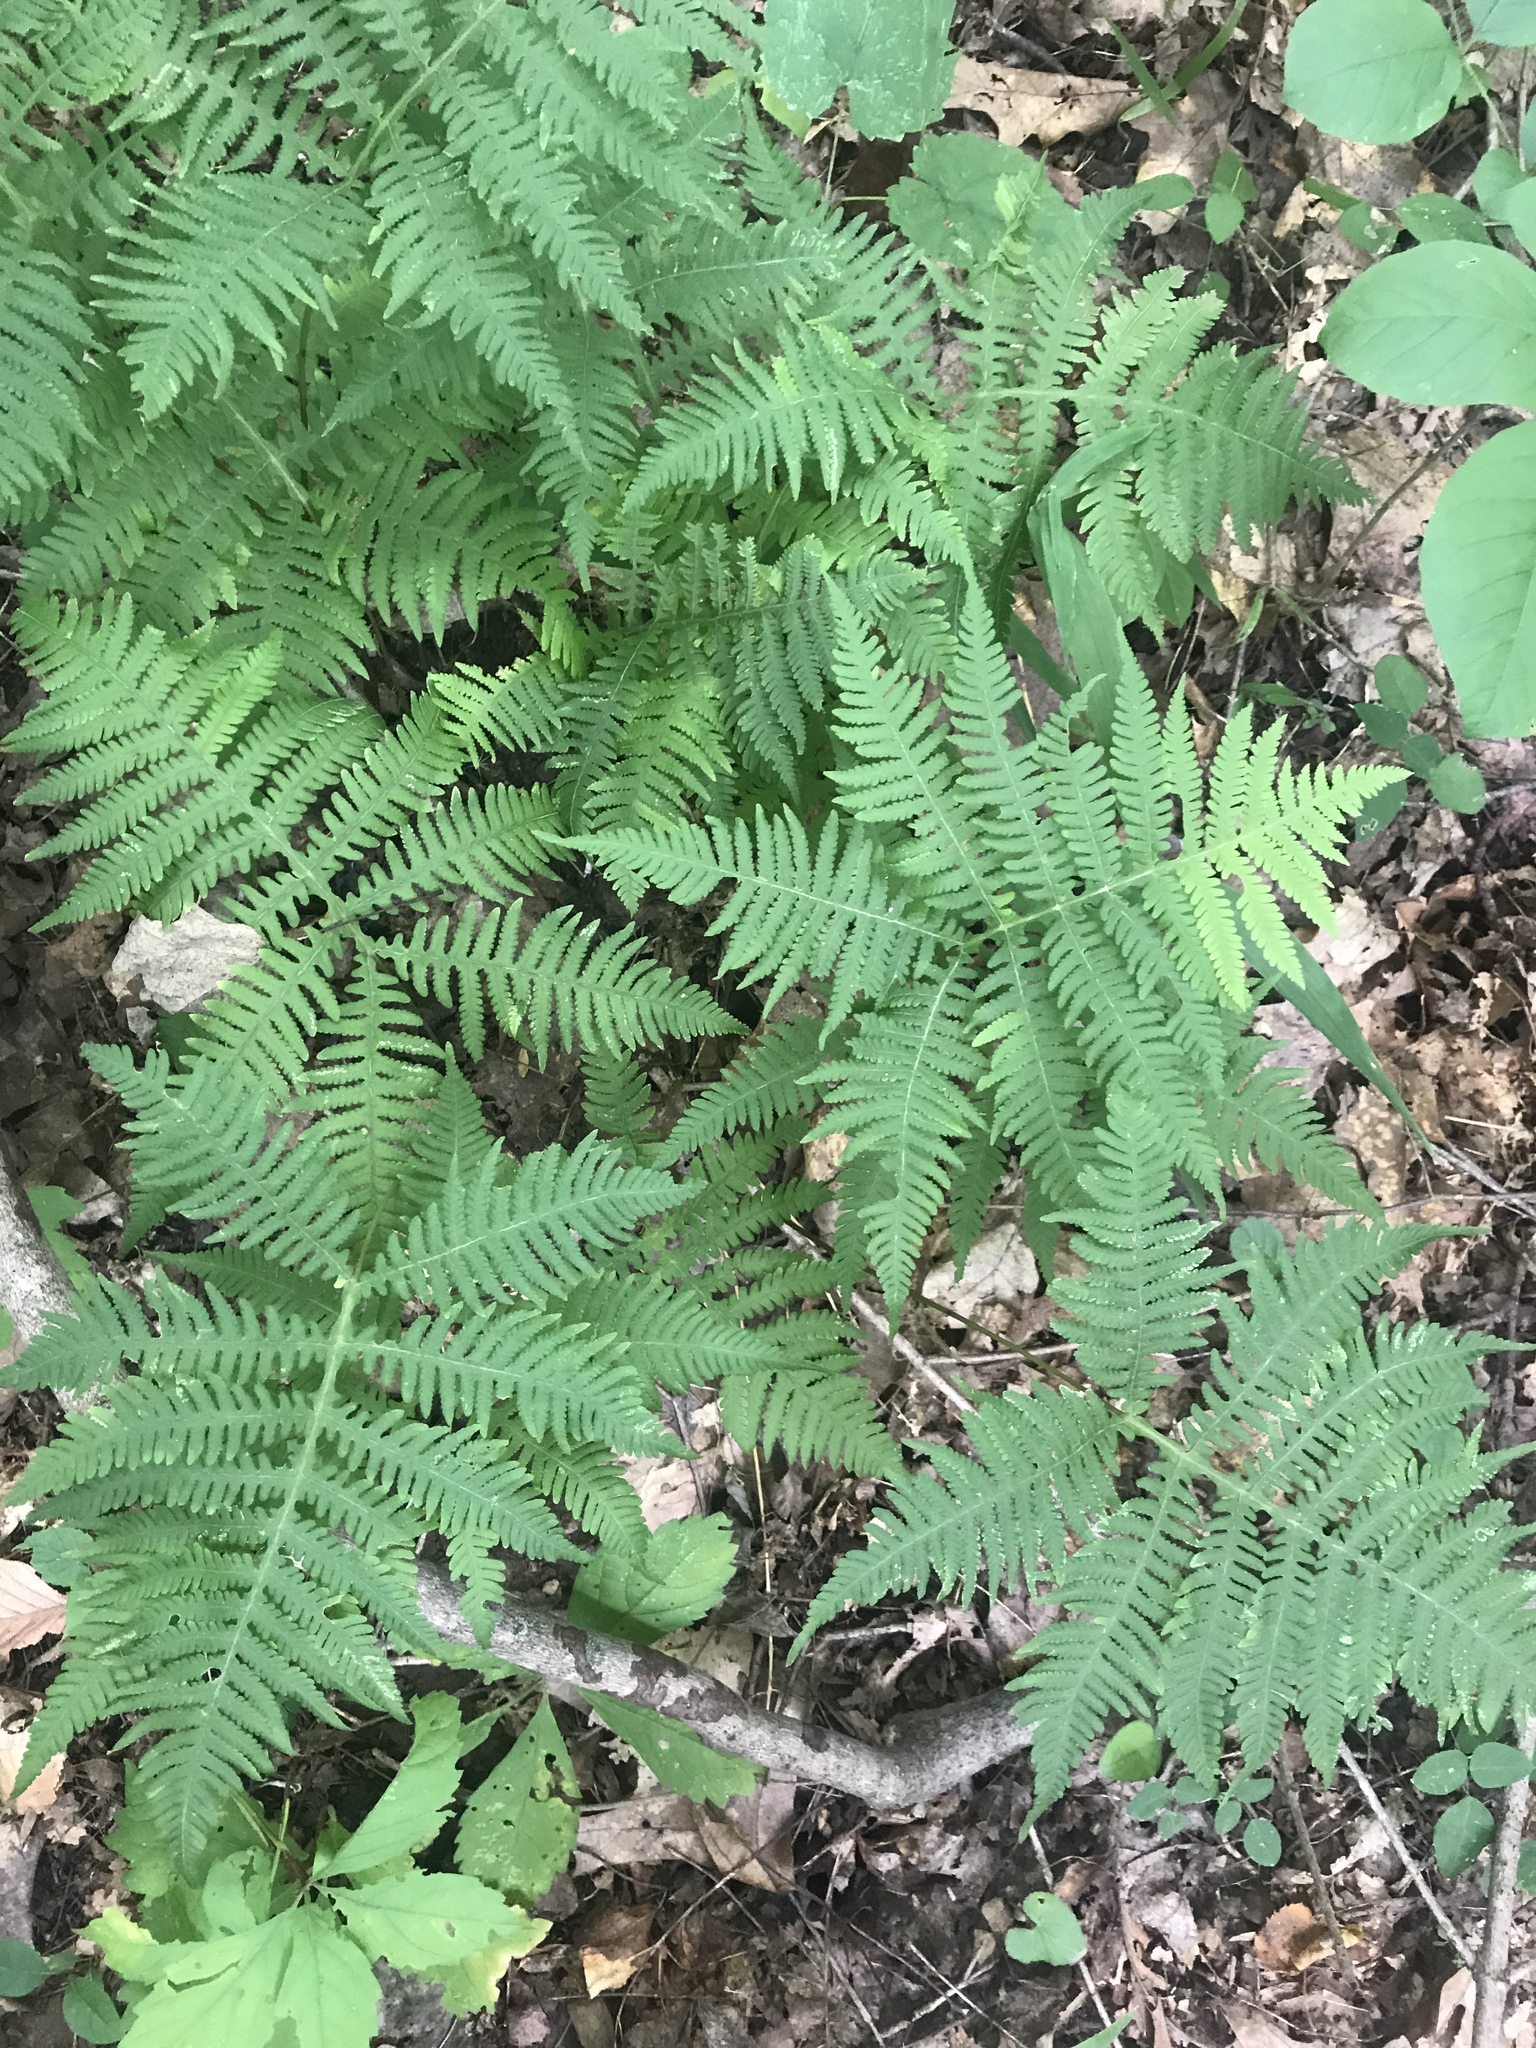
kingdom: Plantae
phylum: Tracheophyta
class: Polypodiopsida
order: Polypodiales
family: Thelypteridaceae
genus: Phegopteris
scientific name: Phegopteris hexagonoptera
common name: Broad beech fern
